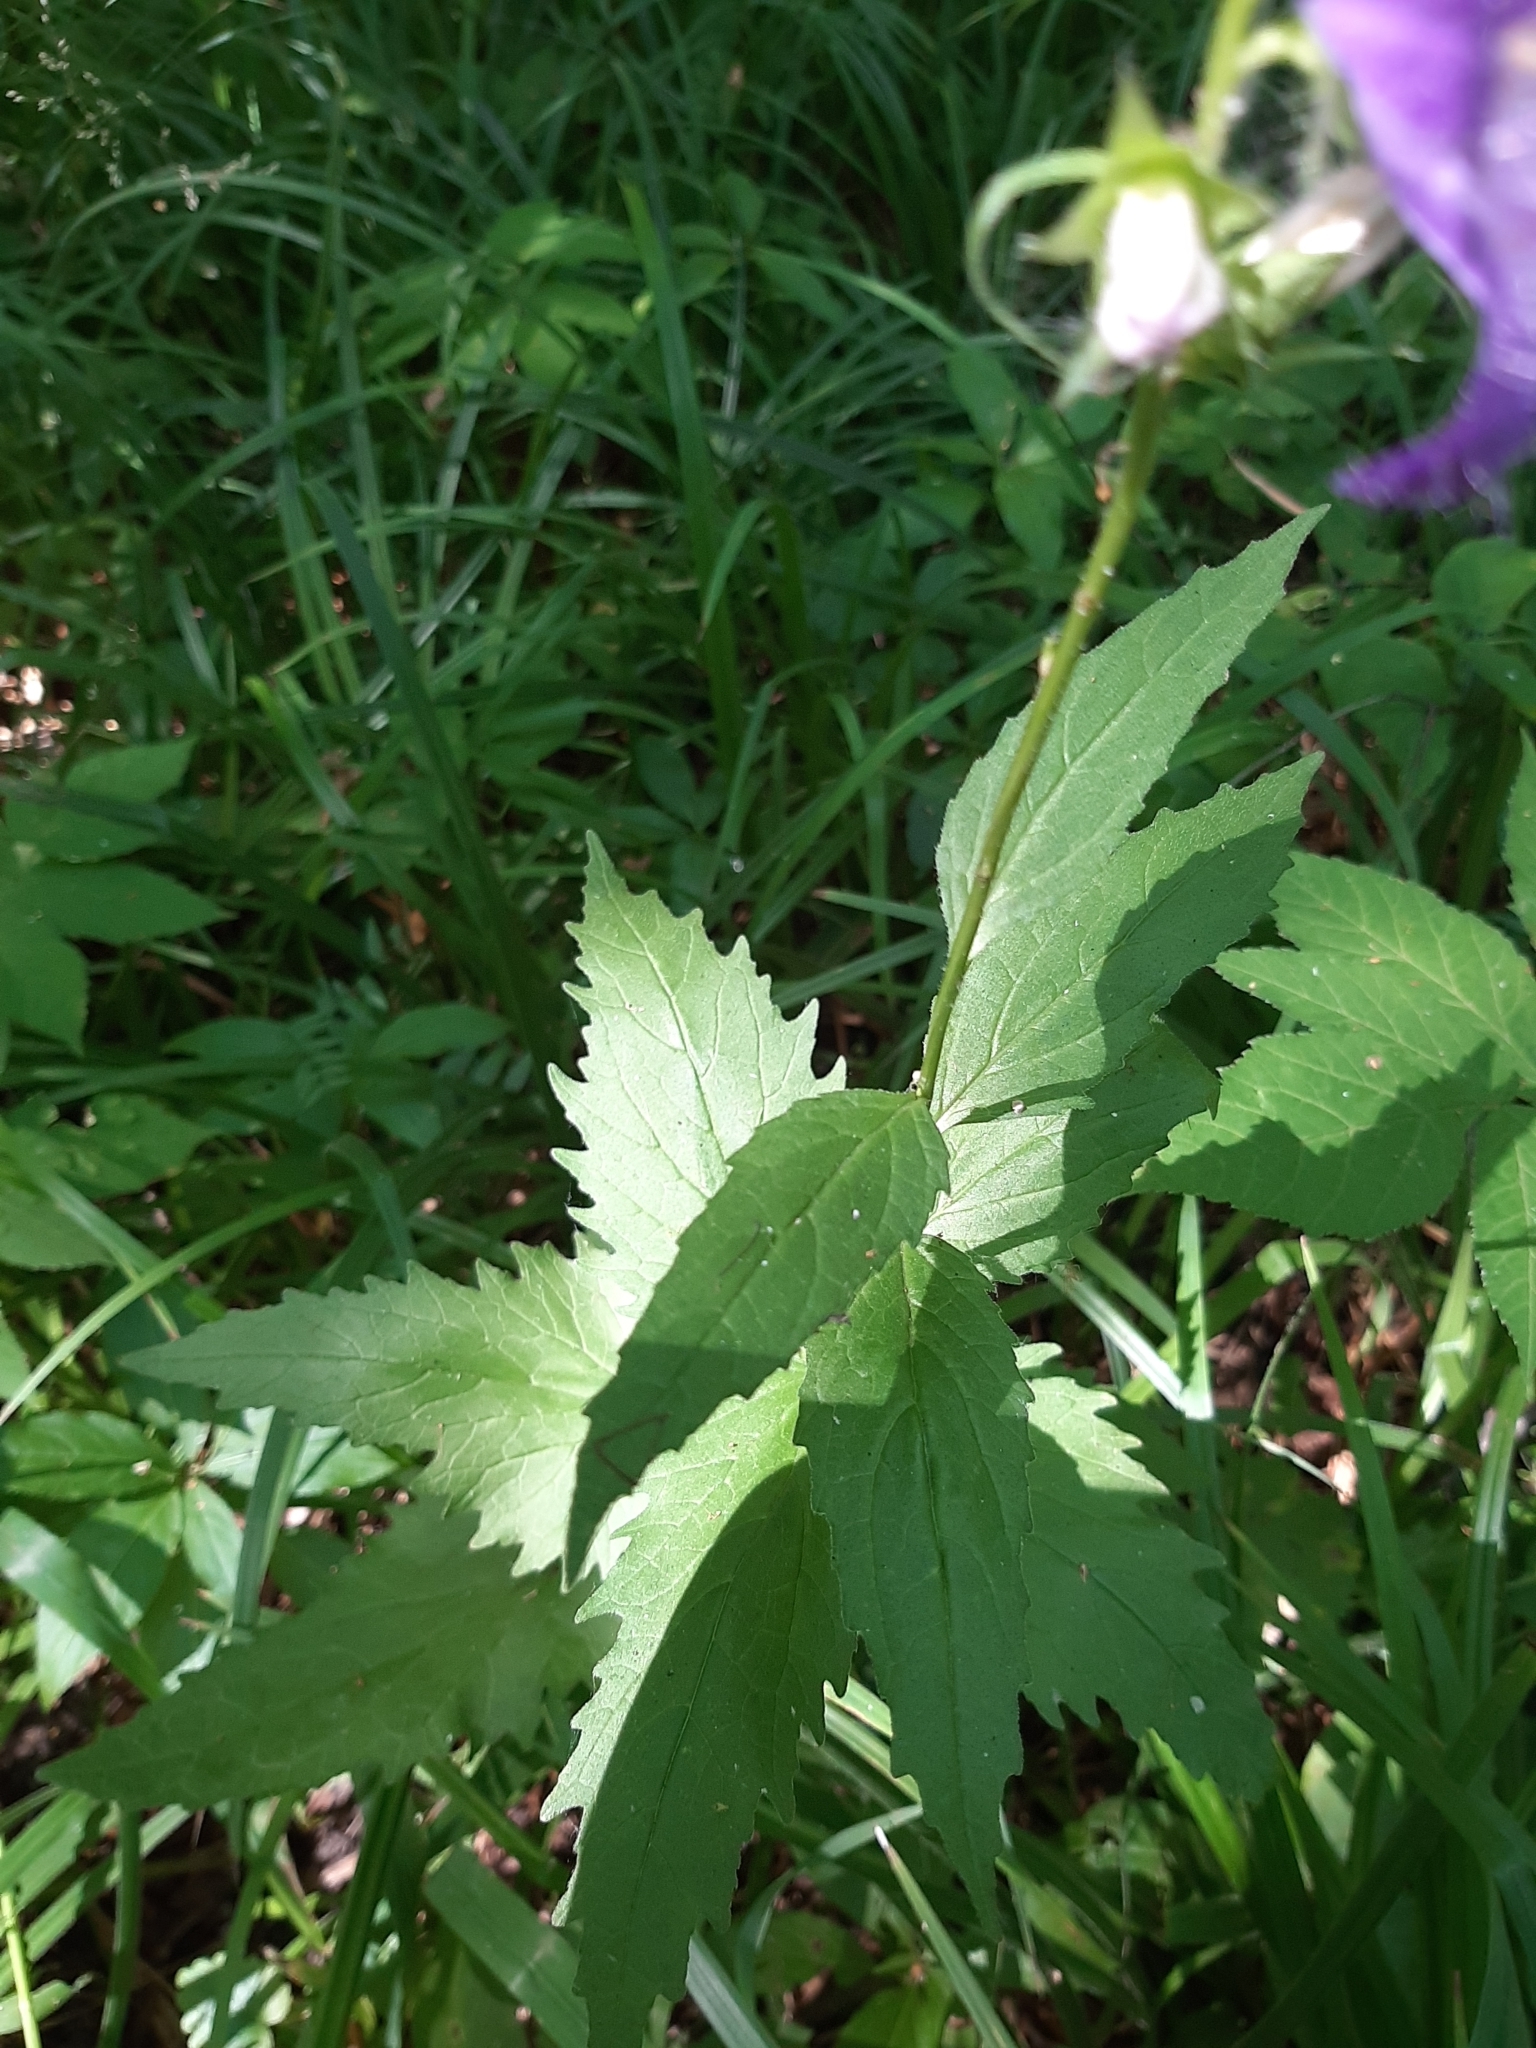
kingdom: Plantae
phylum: Tracheophyta
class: Magnoliopsida
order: Asterales
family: Campanulaceae
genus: Campanula
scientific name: Campanula trachelium
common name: Nettle-leaved bellflower
